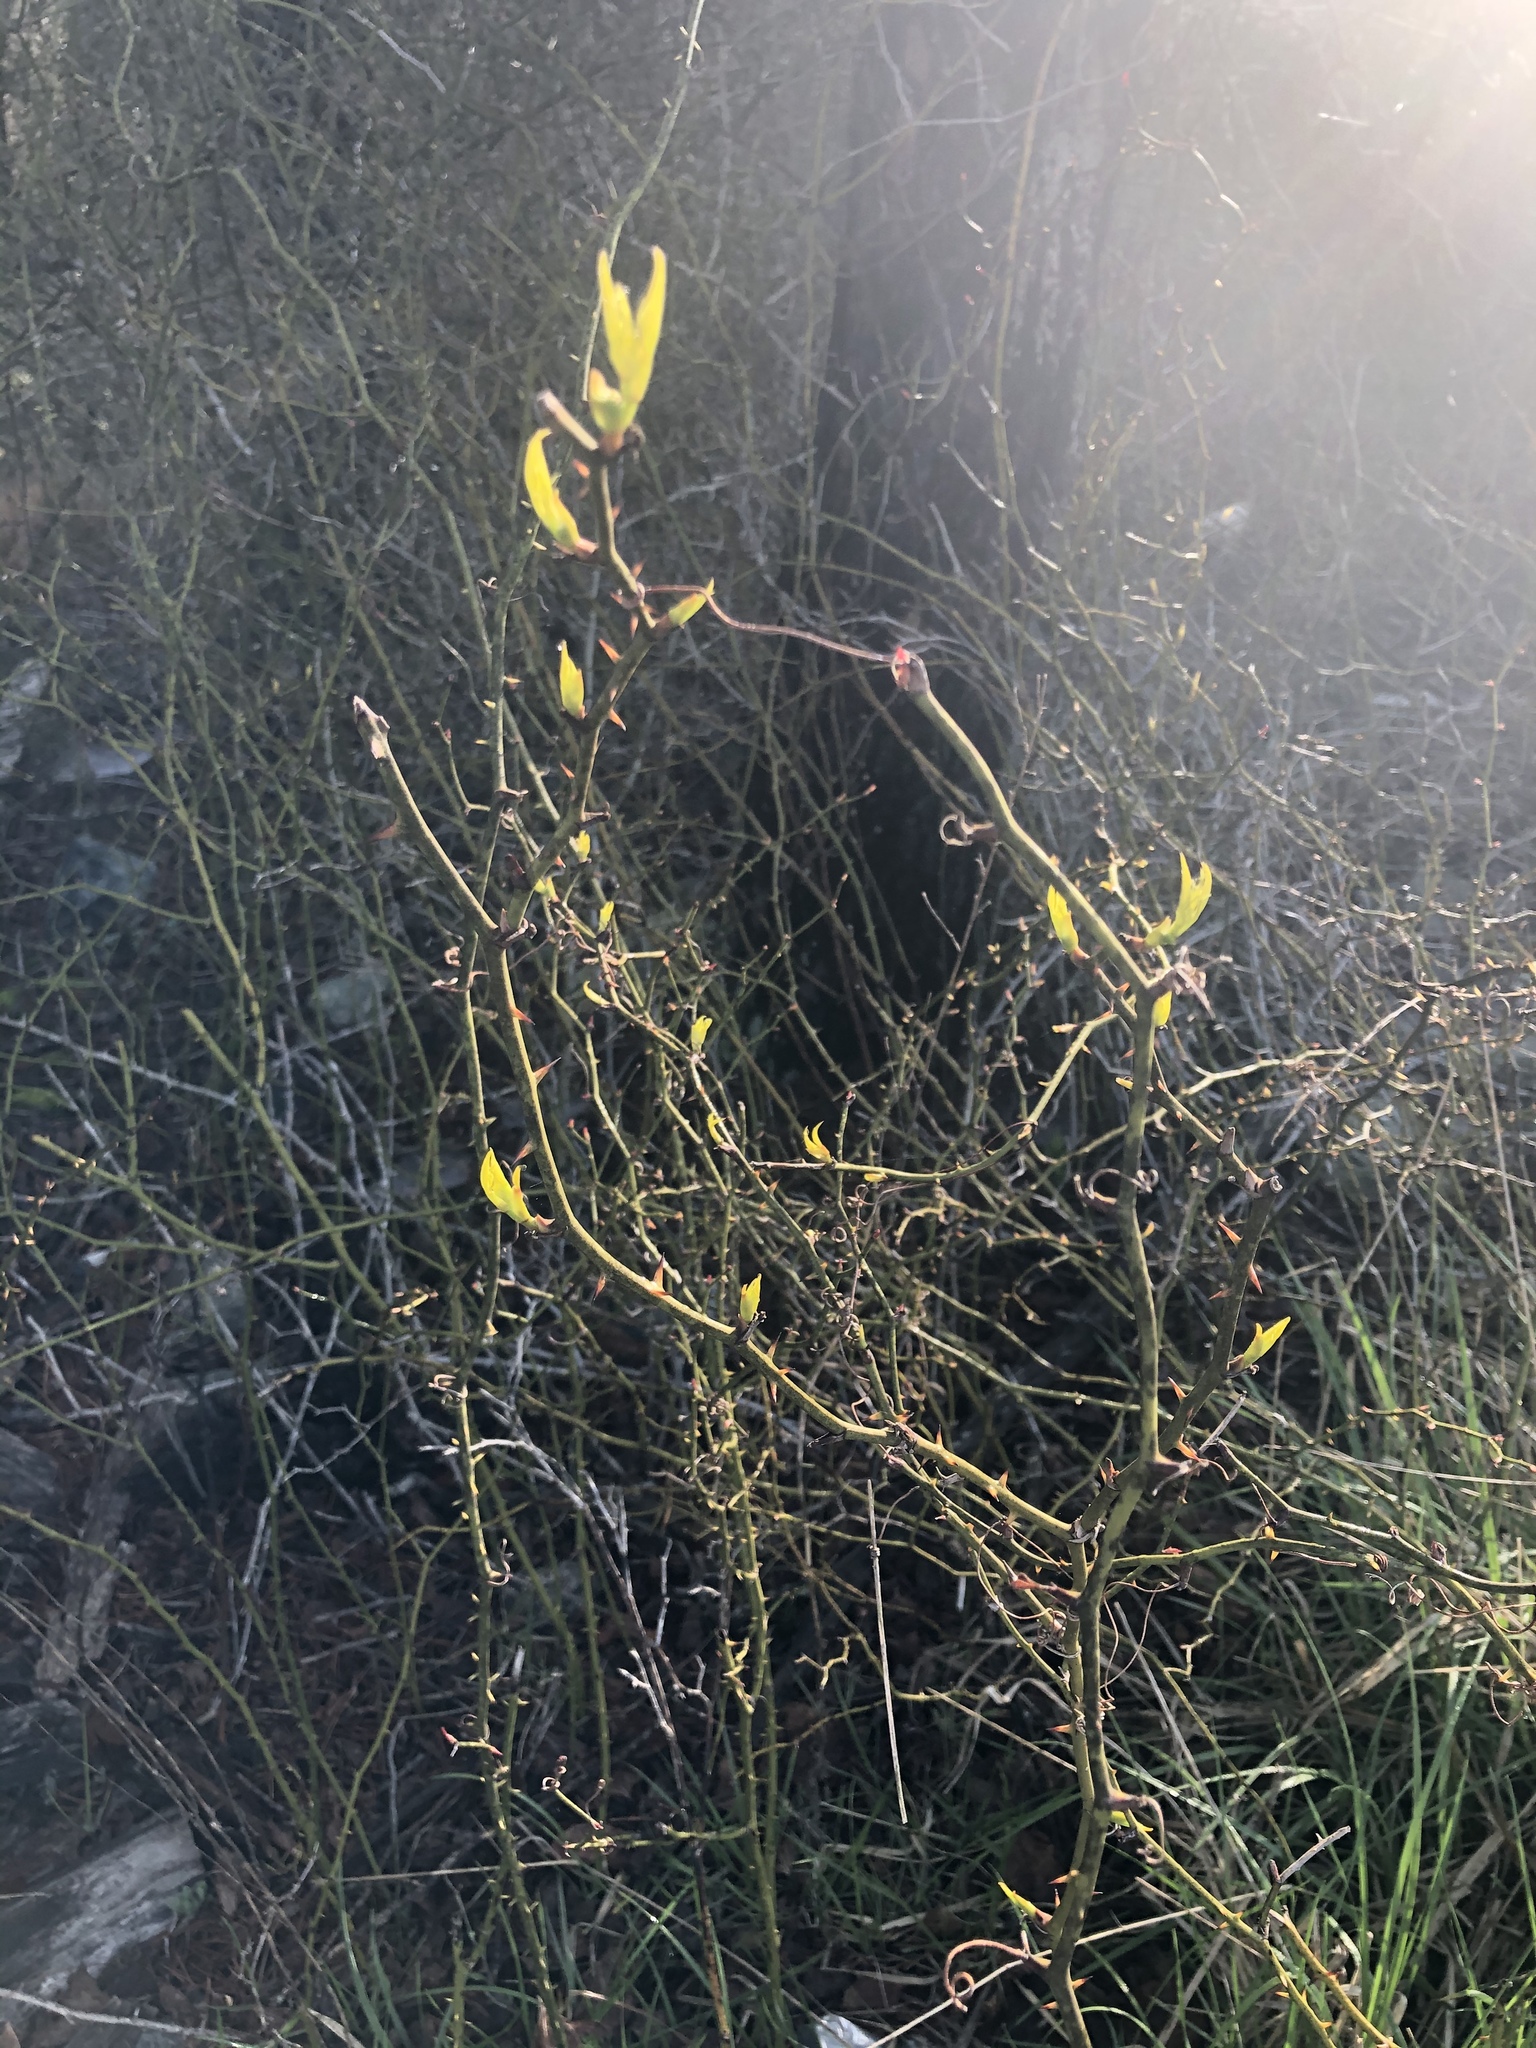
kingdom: Plantae
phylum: Tracheophyta
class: Liliopsida
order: Liliales
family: Smilacaceae
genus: Smilax
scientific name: Smilax rotundifolia
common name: Bullbriar
